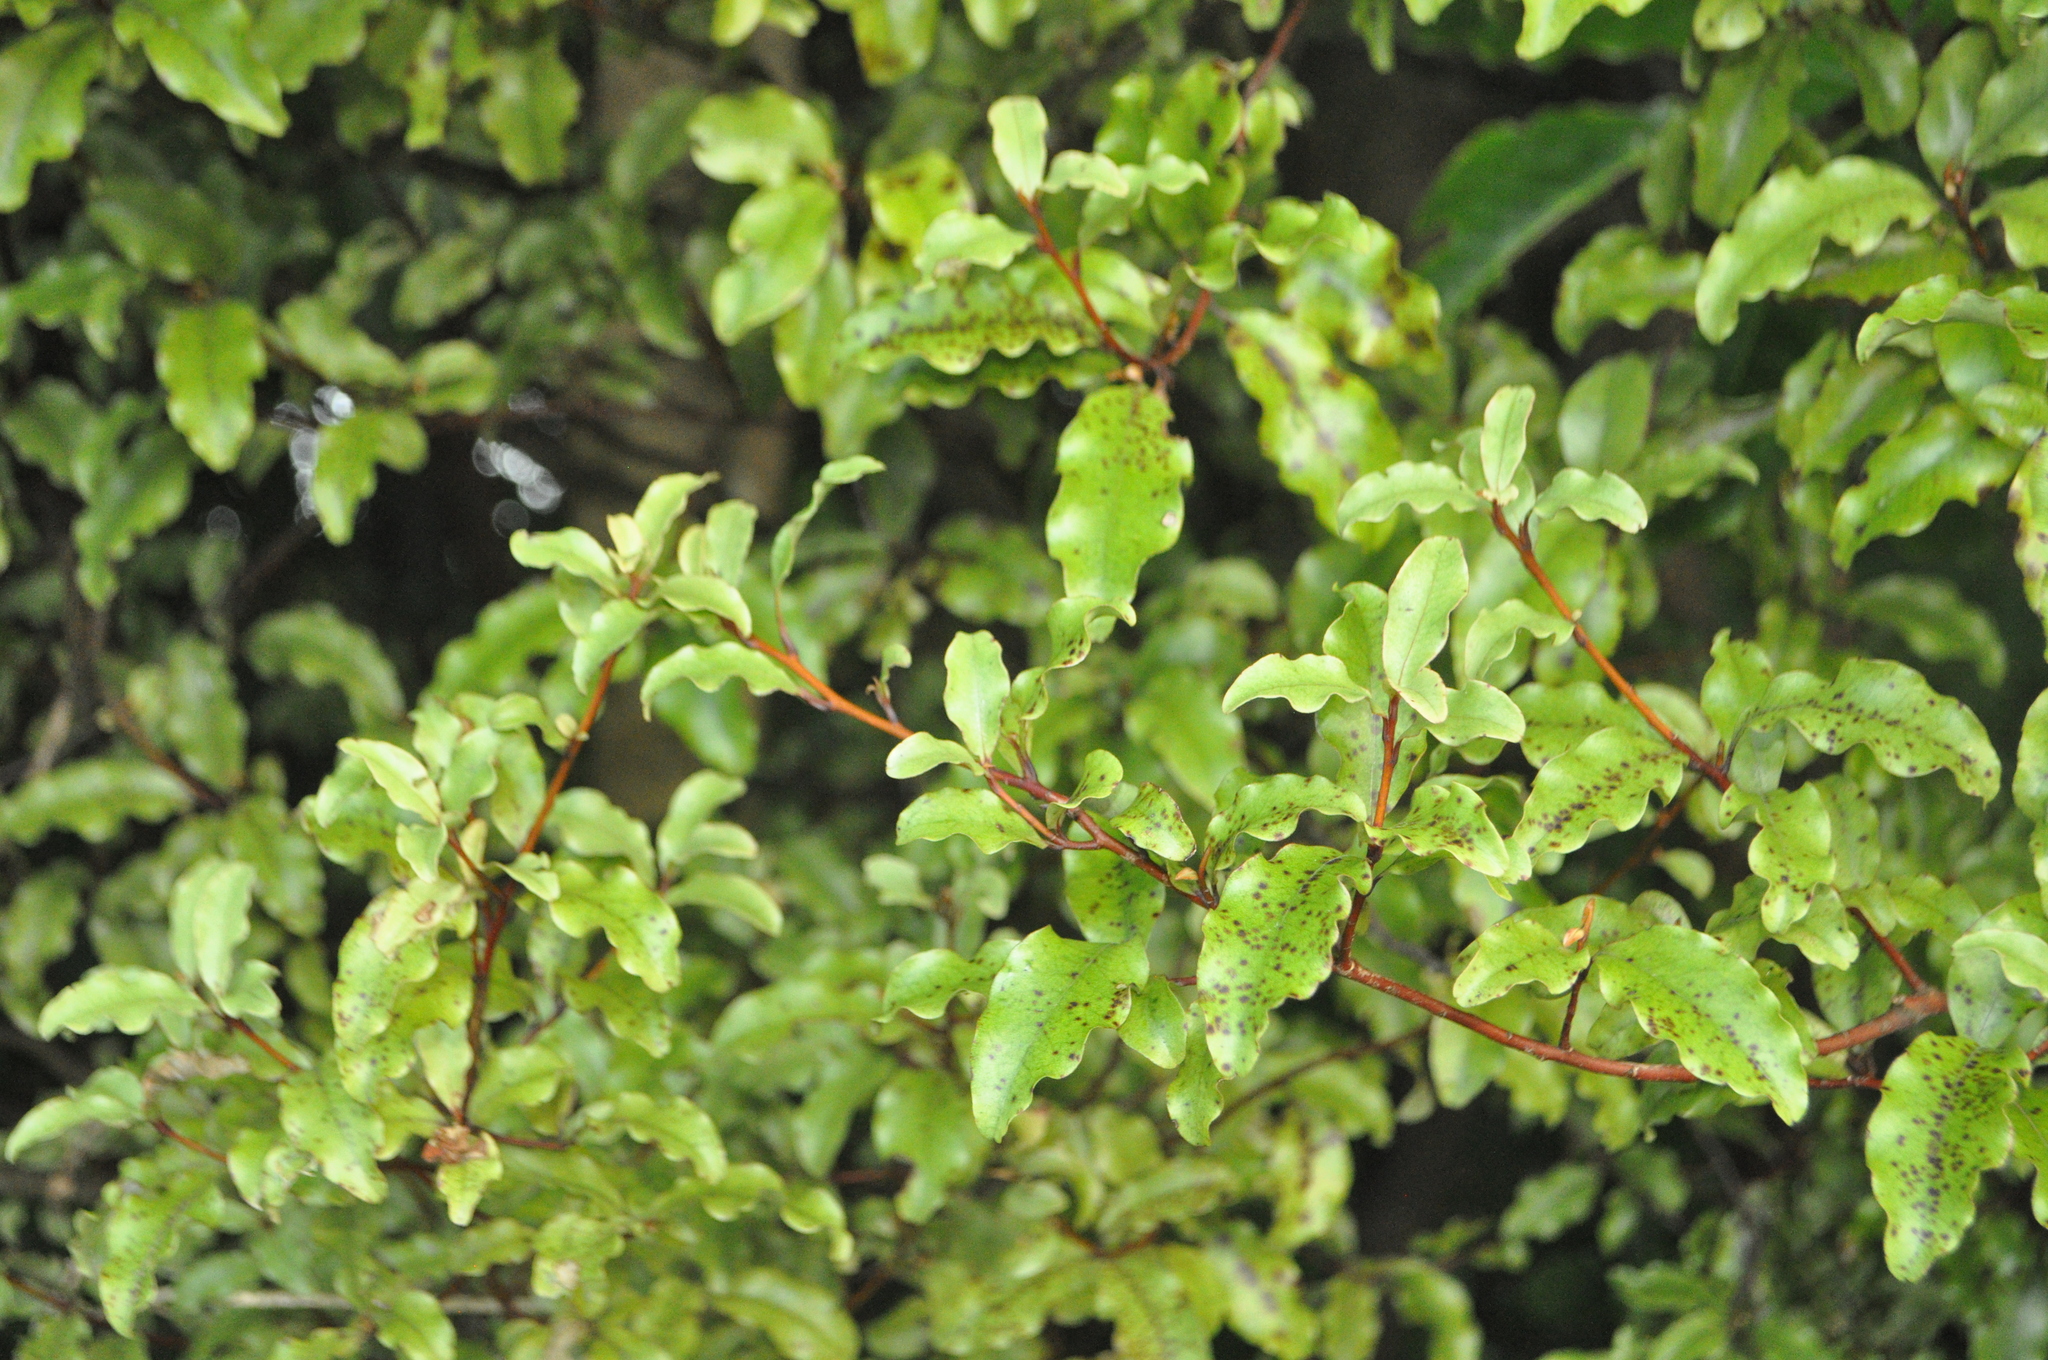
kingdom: Plantae
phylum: Tracheophyta
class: Magnoliopsida
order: Ericales
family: Primulaceae
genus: Myrsine
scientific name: Myrsine australis
